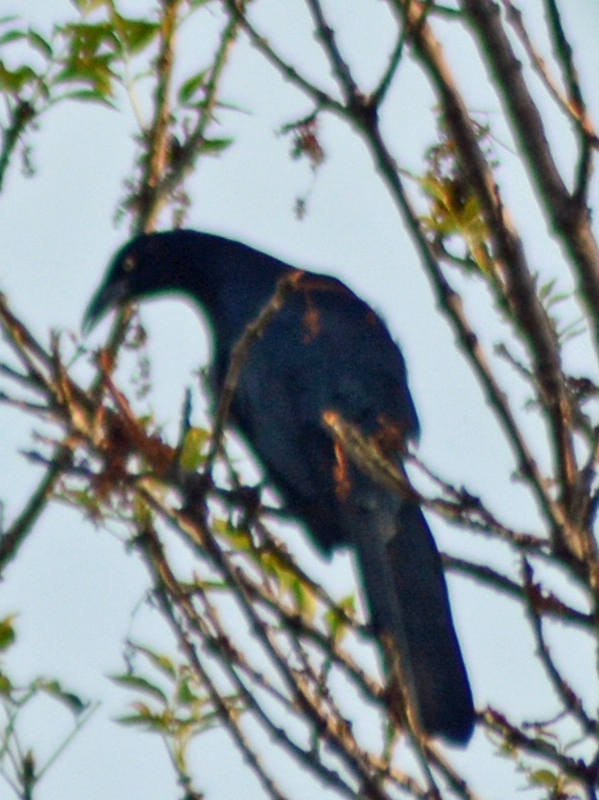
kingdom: Animalia
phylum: Chordata
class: Aves
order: Passeriformes
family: Icteridae
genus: Quiscalus
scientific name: Quiscalus mexicanus
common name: Great-tailed grackle
